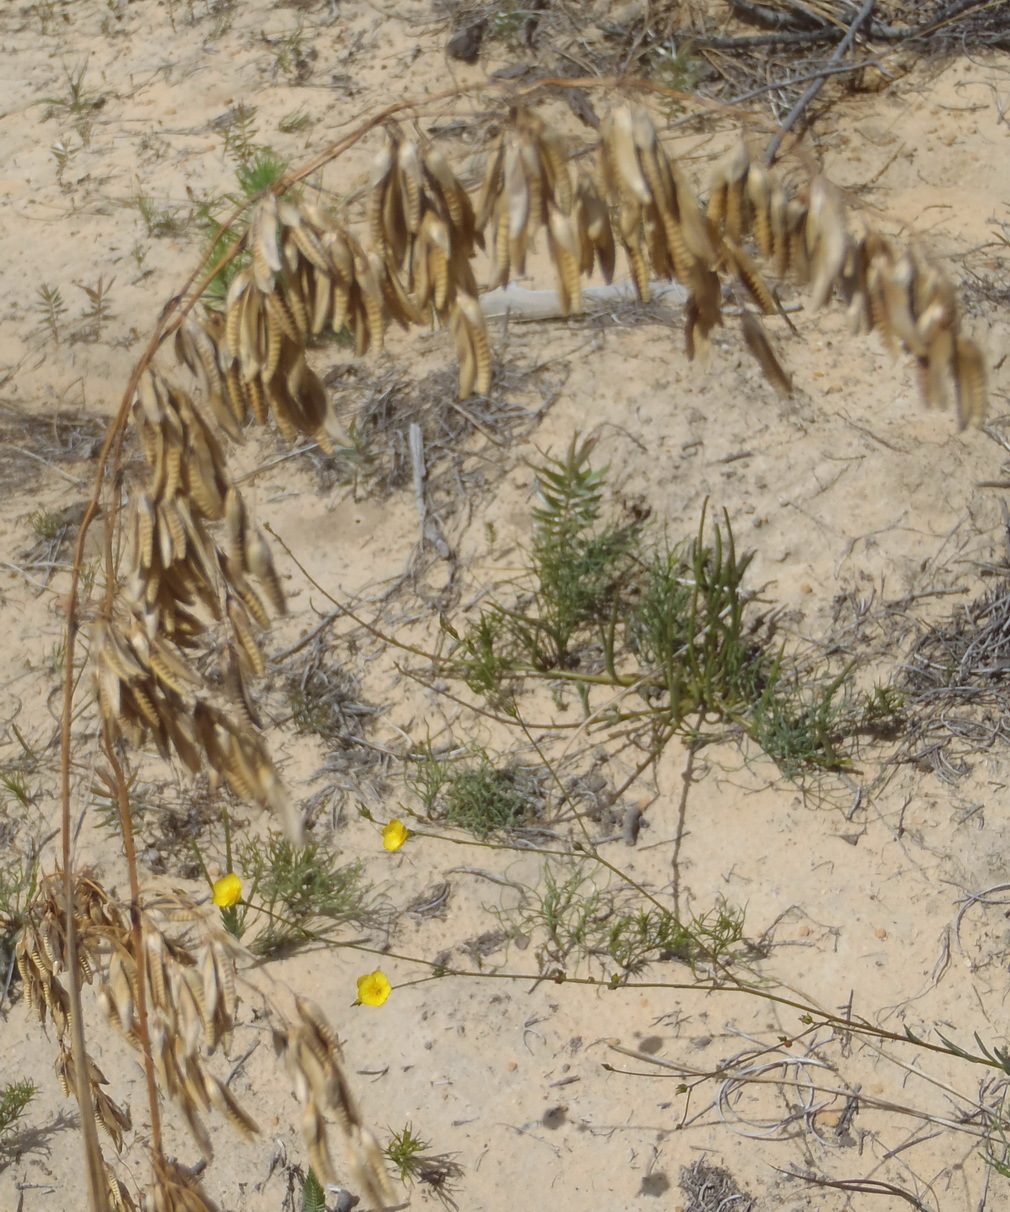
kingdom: Plantae
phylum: Tracheophyta
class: Liliopsida
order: Poales
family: Poaceae
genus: Ehrharta
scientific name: Ehrharta capensis
